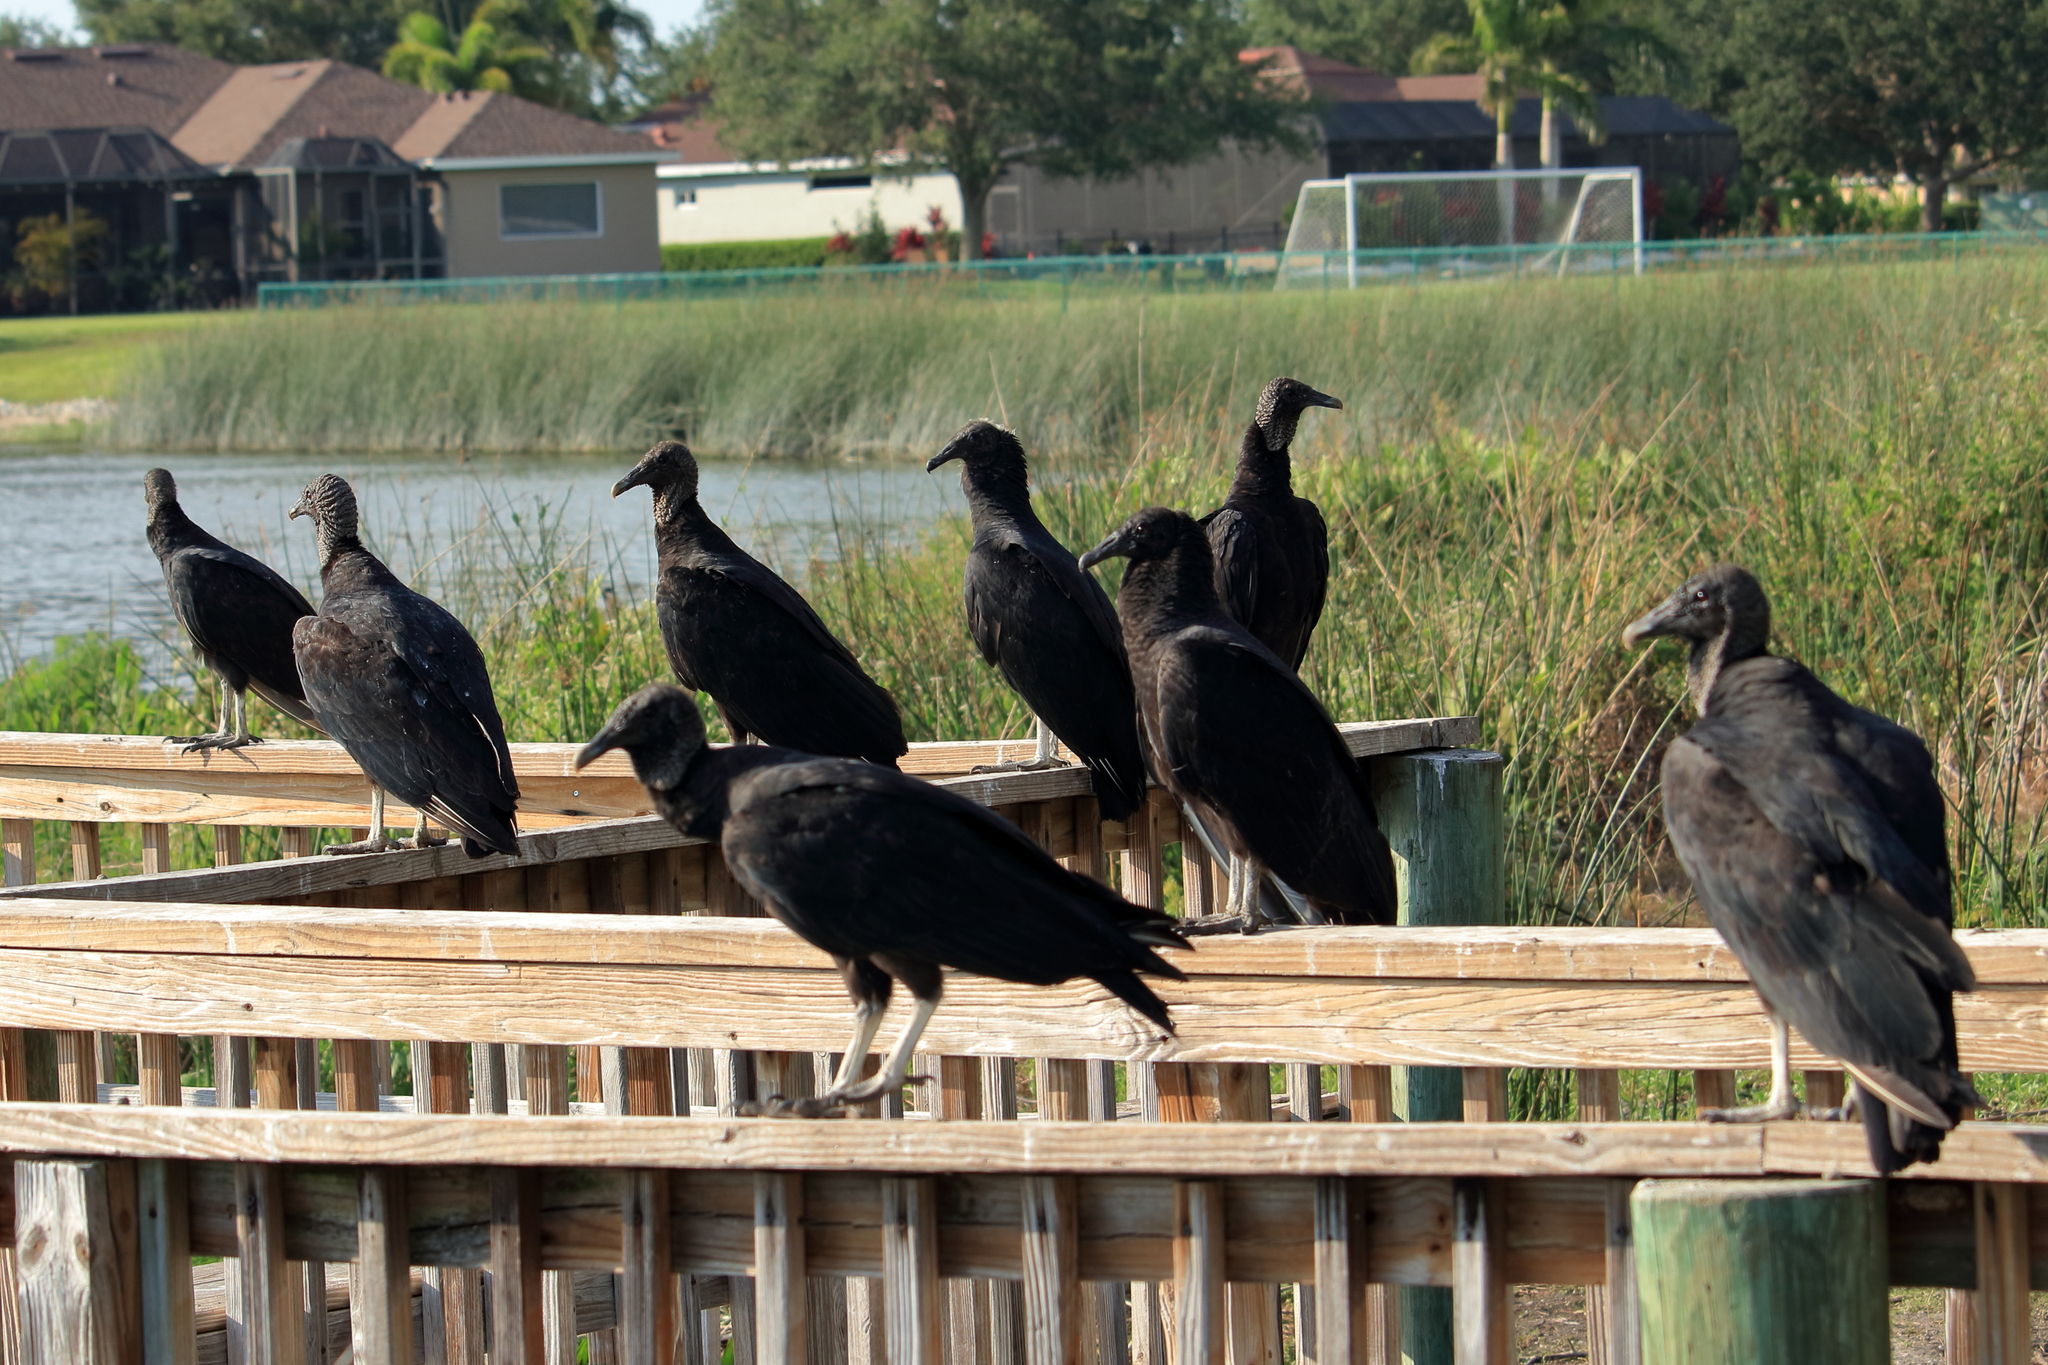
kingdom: Animalia
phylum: Chordata
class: Aves
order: Accipitriformes
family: Cathartidae
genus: Coragyps
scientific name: Coragyps atratus
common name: Black vulture
